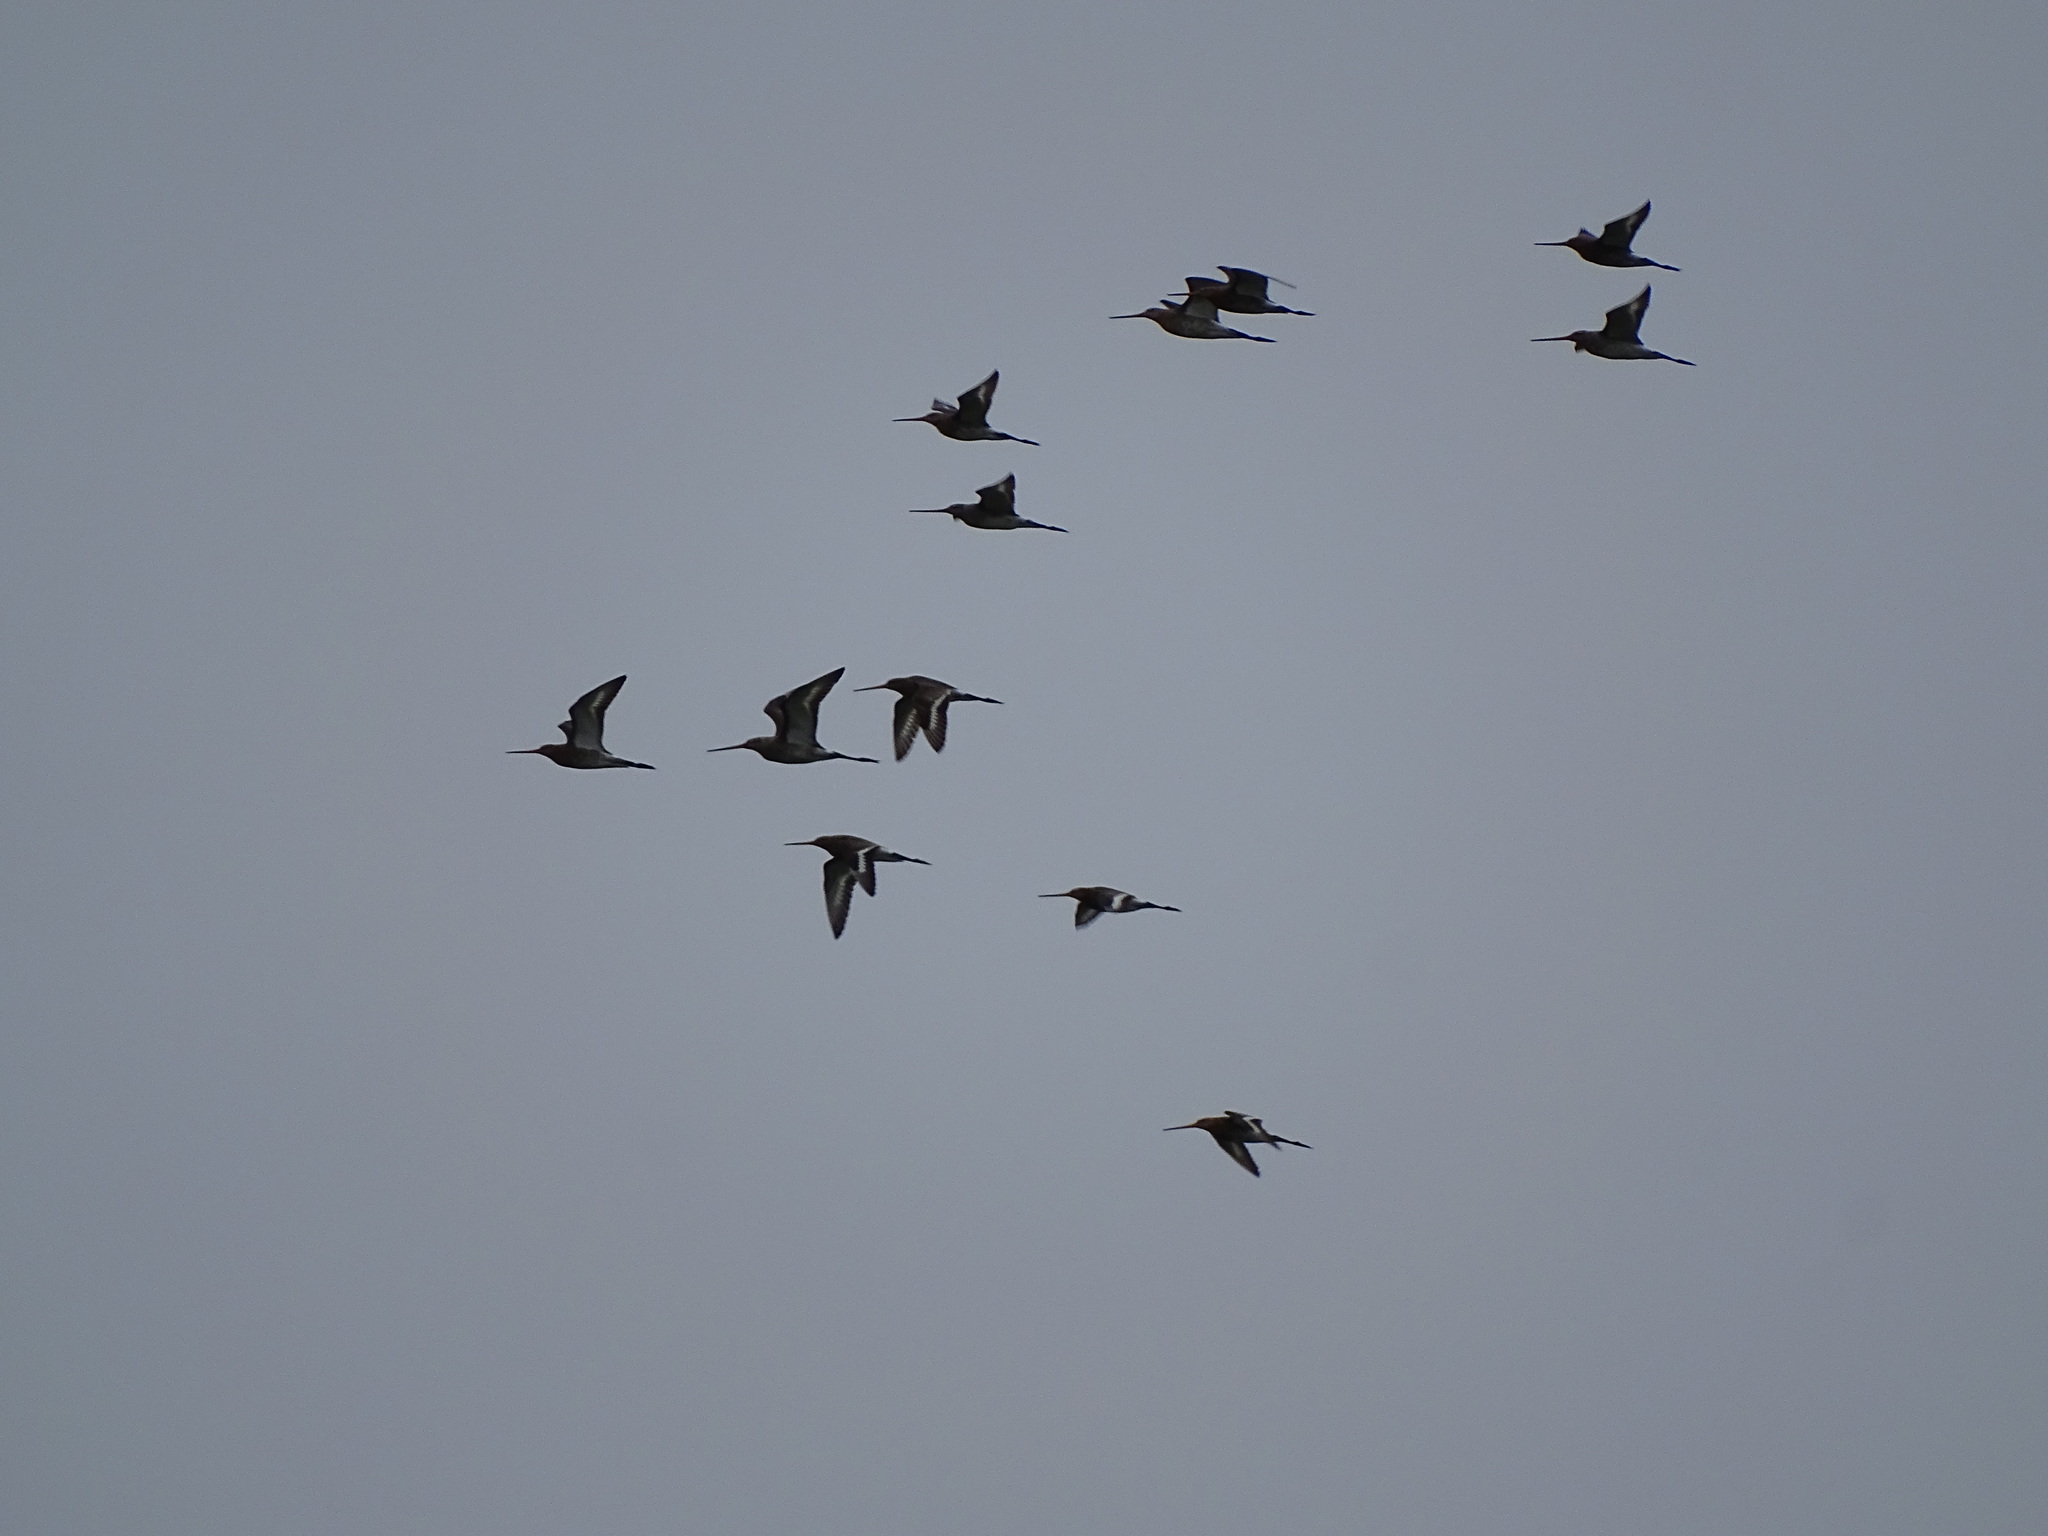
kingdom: Animalia
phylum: Chordata
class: Aves
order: Charadriiformes
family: Scolopacidae
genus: Limosa
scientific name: Limosa limosa
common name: Black-tailed godwit
